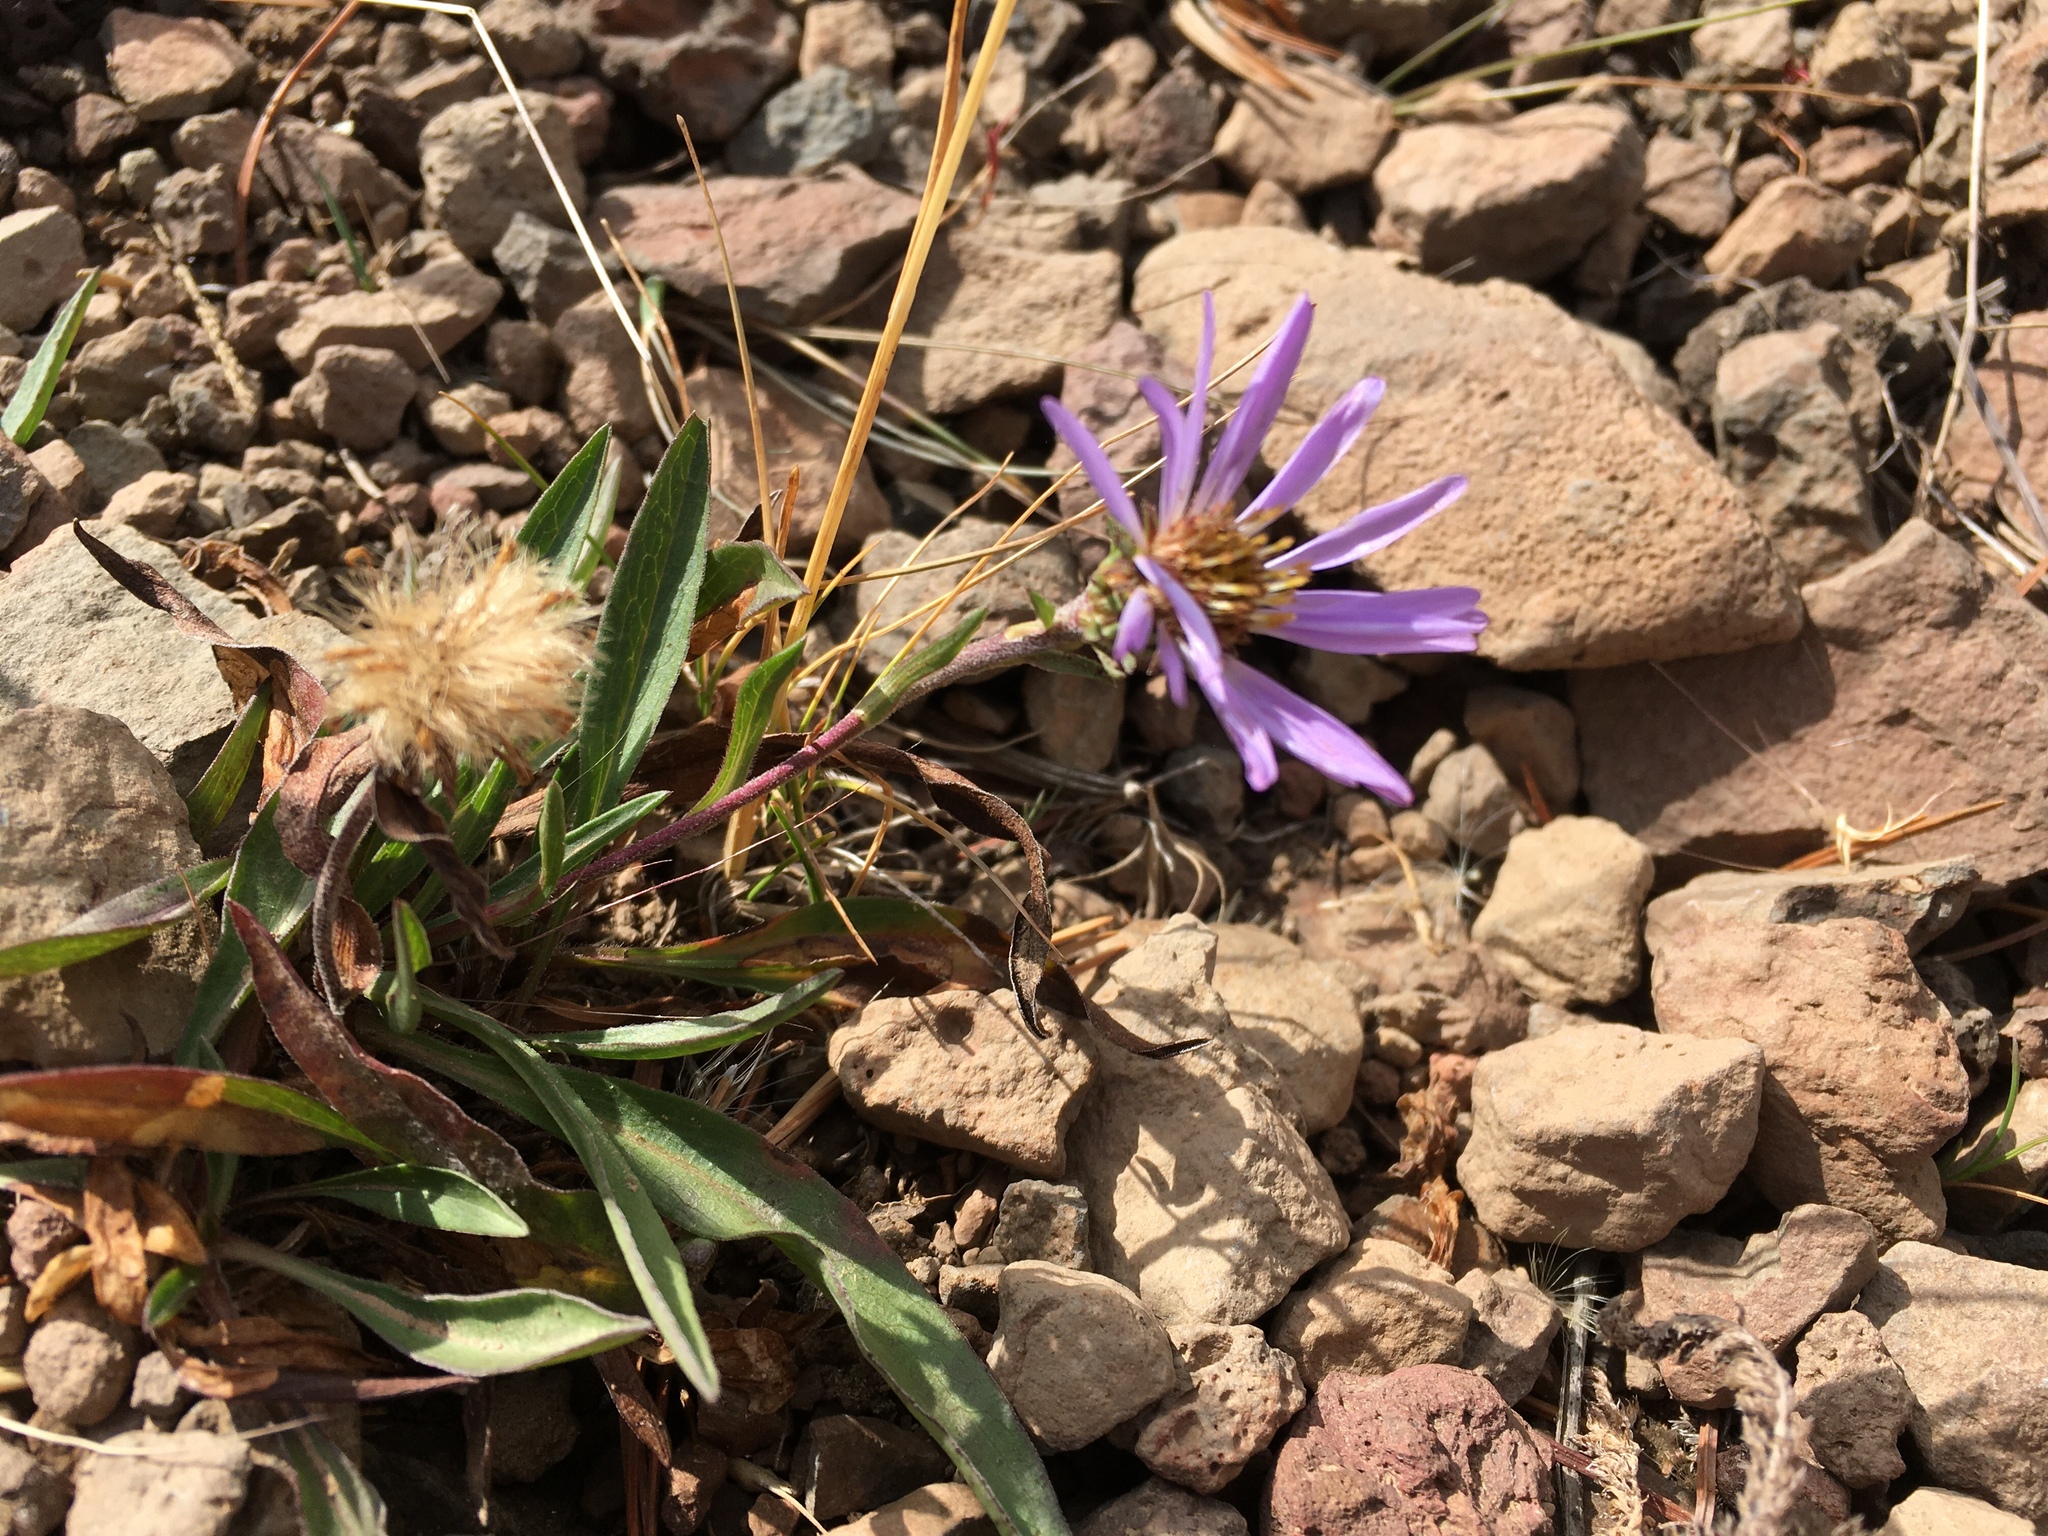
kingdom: Plantae
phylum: Tracheophyta
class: Magnoliopsida
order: Asterales
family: Asteraceae
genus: Oreostemma
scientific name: Oreostemma alpigenum
